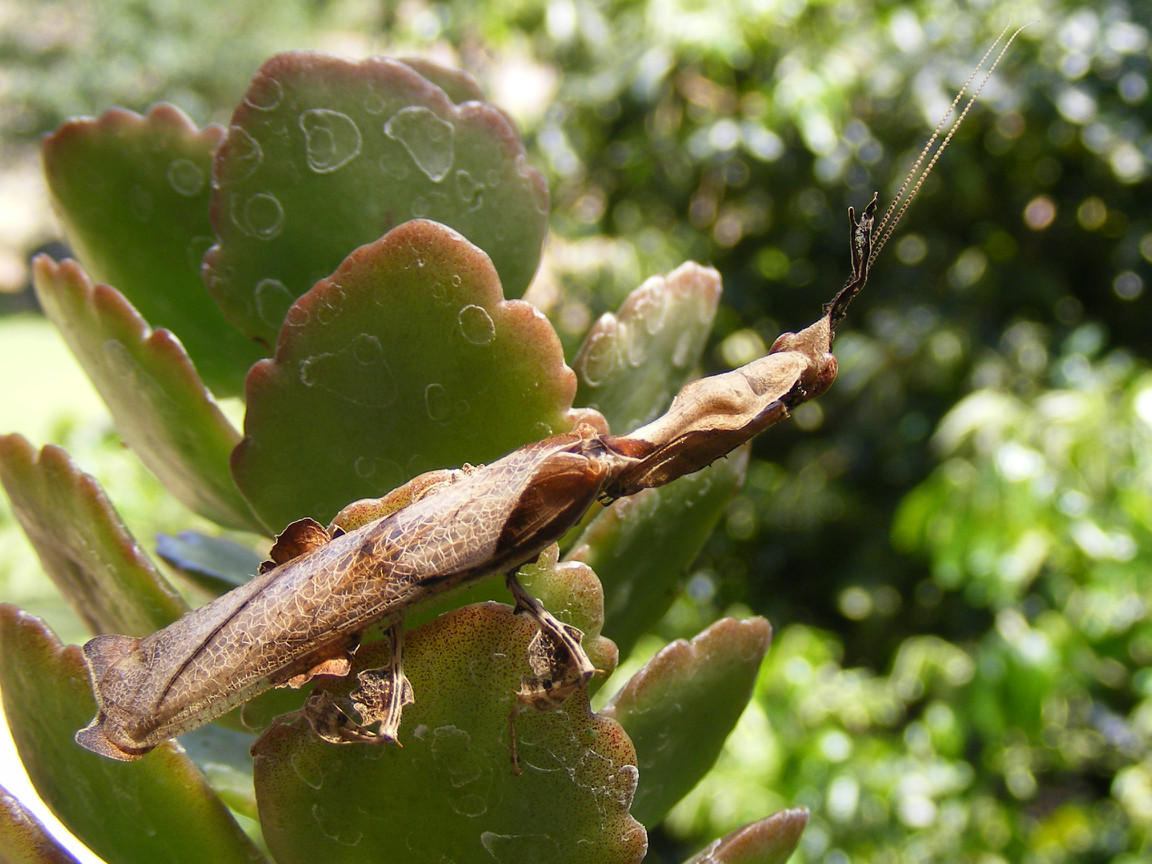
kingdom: Animalia
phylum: Arthropoda
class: Insecta
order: Mantodea
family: Hymenopodidae
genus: Phyllocrania
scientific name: Phyllocrania paradoxa
